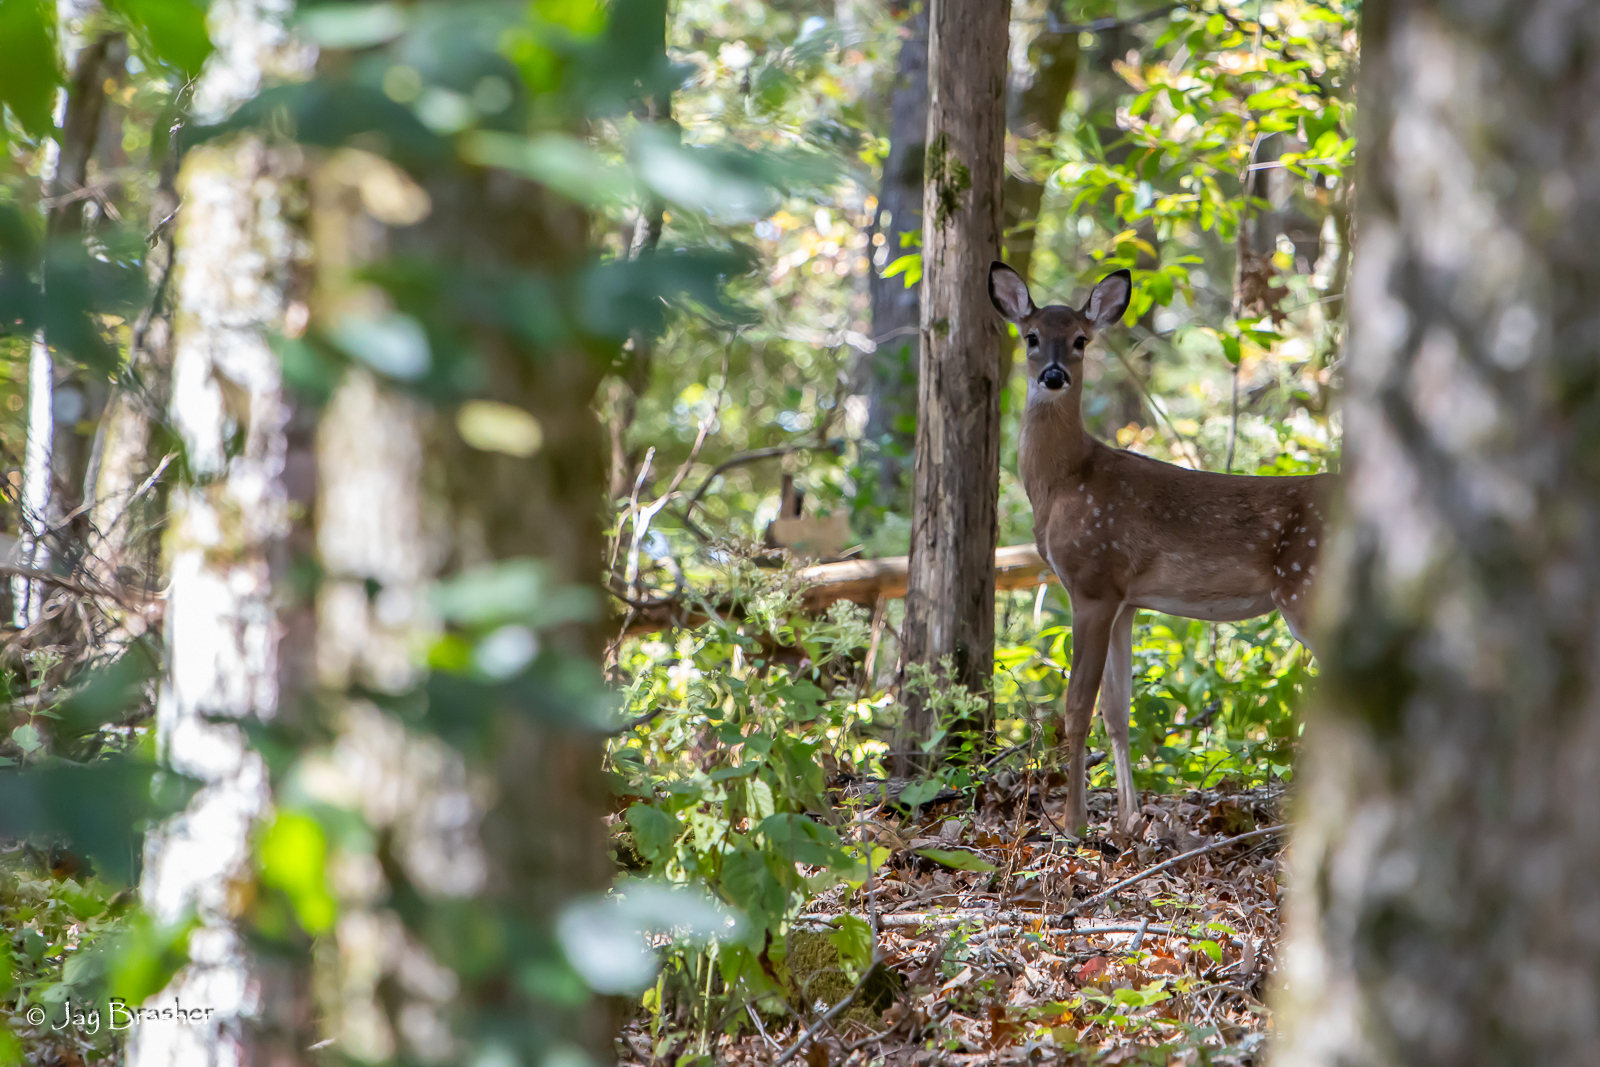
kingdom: Animalia
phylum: Chordata
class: Mammalia
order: Artiodactyla
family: Cervidae
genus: Odocoileus
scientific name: Odocoileus virginianus
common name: White-tailed deer
